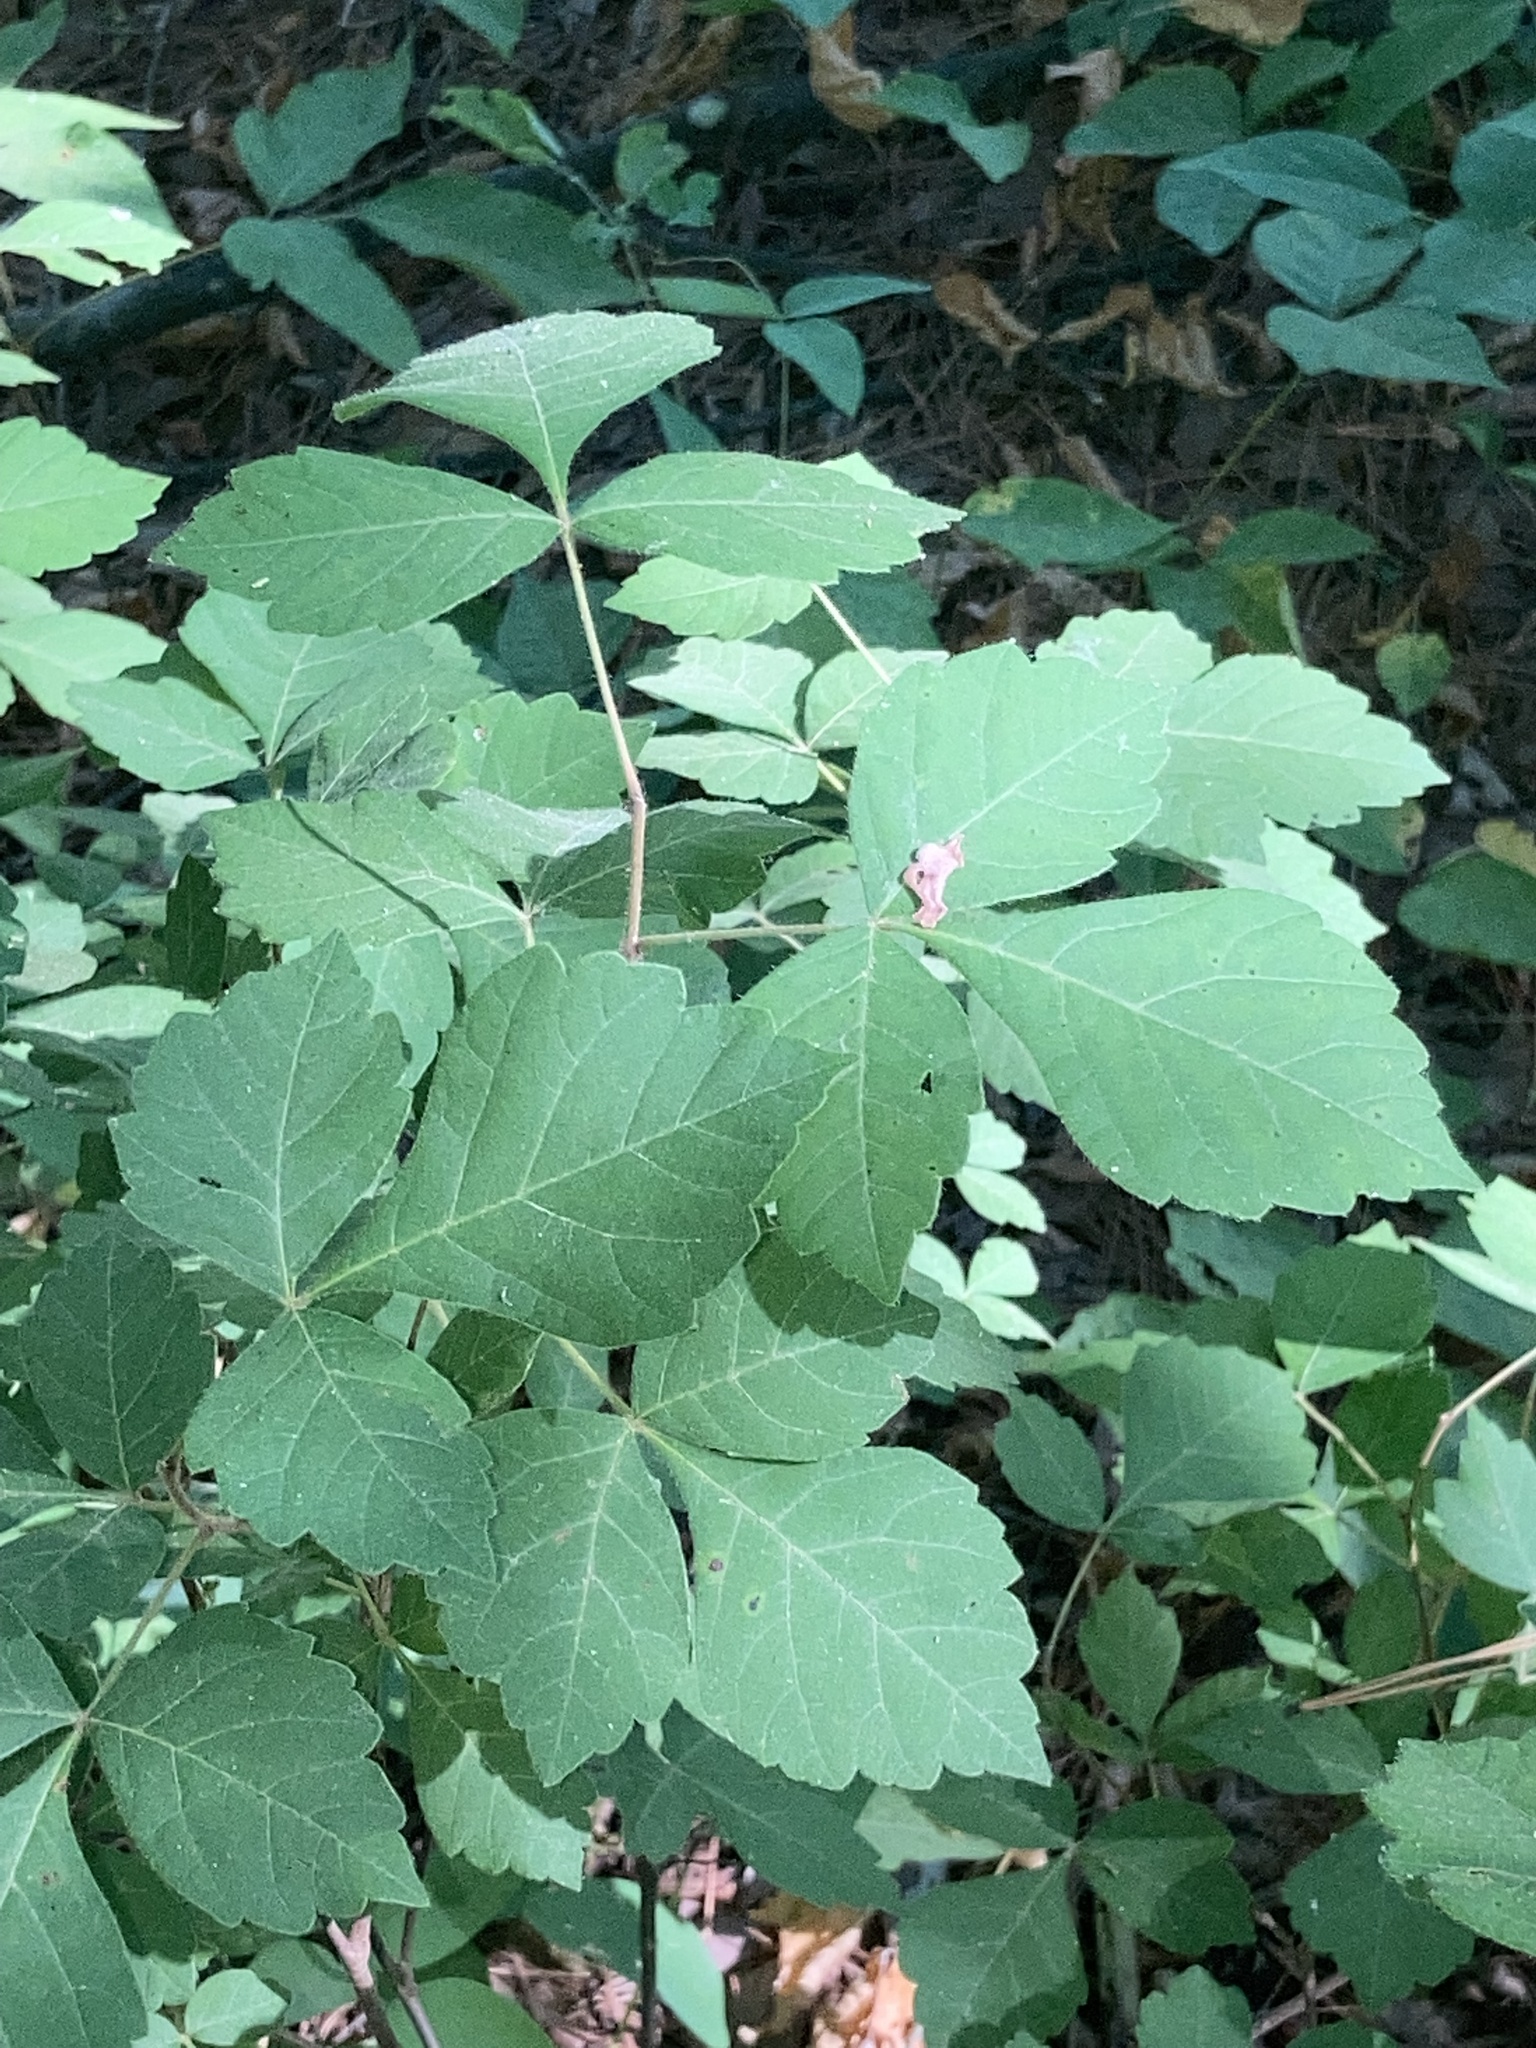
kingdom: Plantae
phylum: Tracheophyta
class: Magnoliopsida
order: Sapindales
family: Anacardiaceae
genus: Rhus
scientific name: Rhus aromatica
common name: Aromatic sumac
